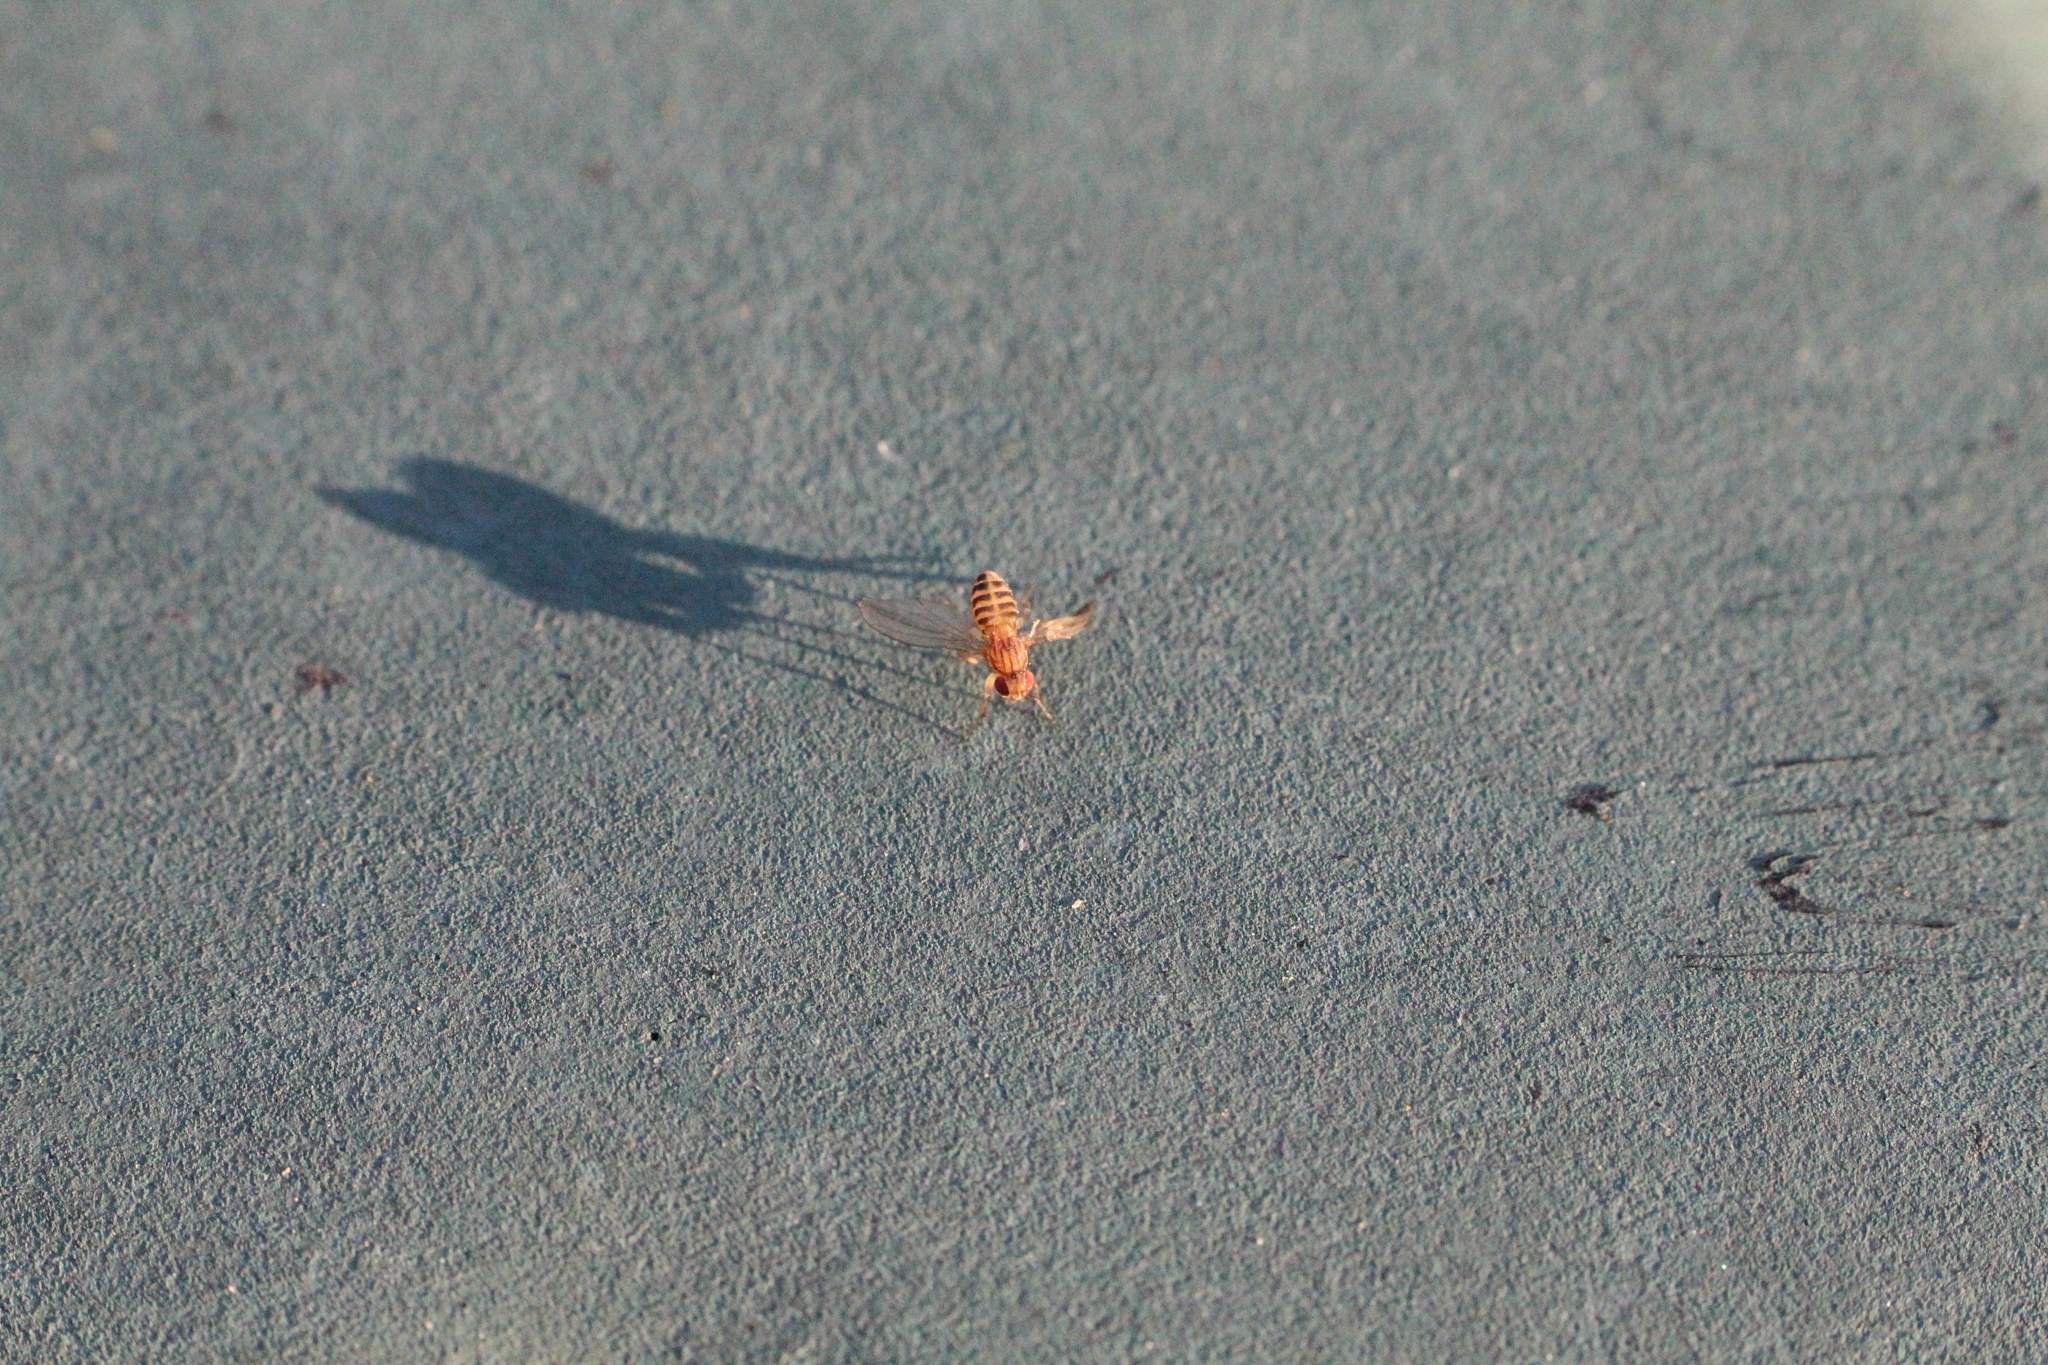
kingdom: Animalia
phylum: Arthropoda
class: Insecta
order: Diptera
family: Drosophilidae
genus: Drosophila
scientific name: Drosophila busckii
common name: Pomace fly
